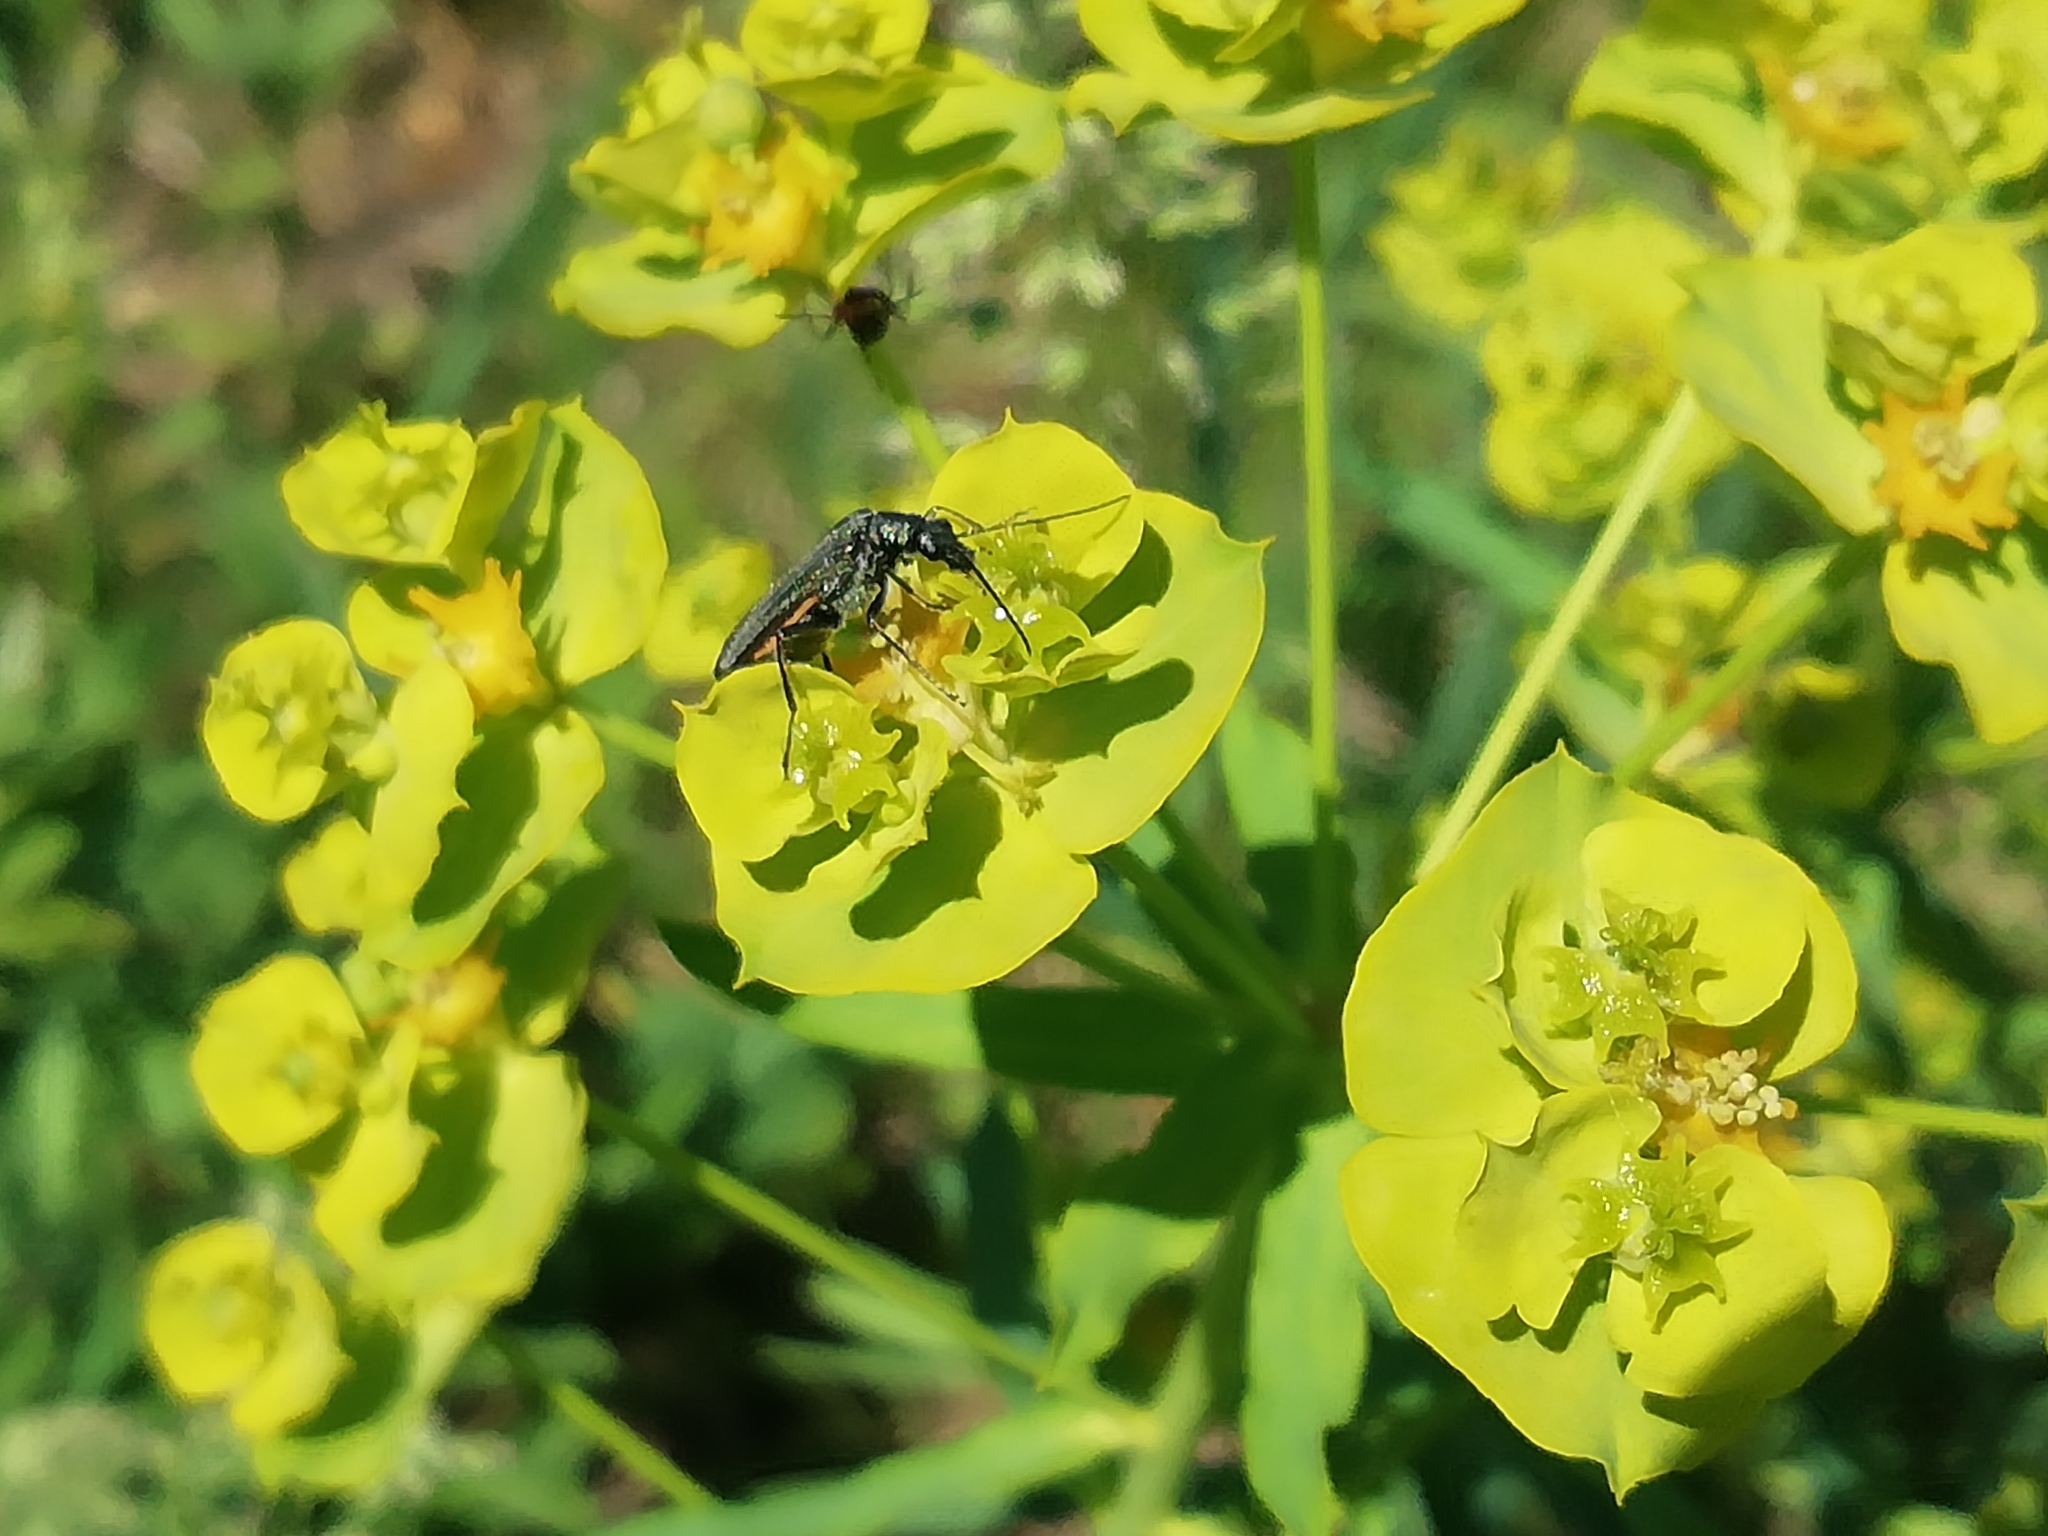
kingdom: Animalia
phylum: Arthropoda
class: Insecta
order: Coleoptera
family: Oedemeridae
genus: Oedemera
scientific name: Oedemera virescens
